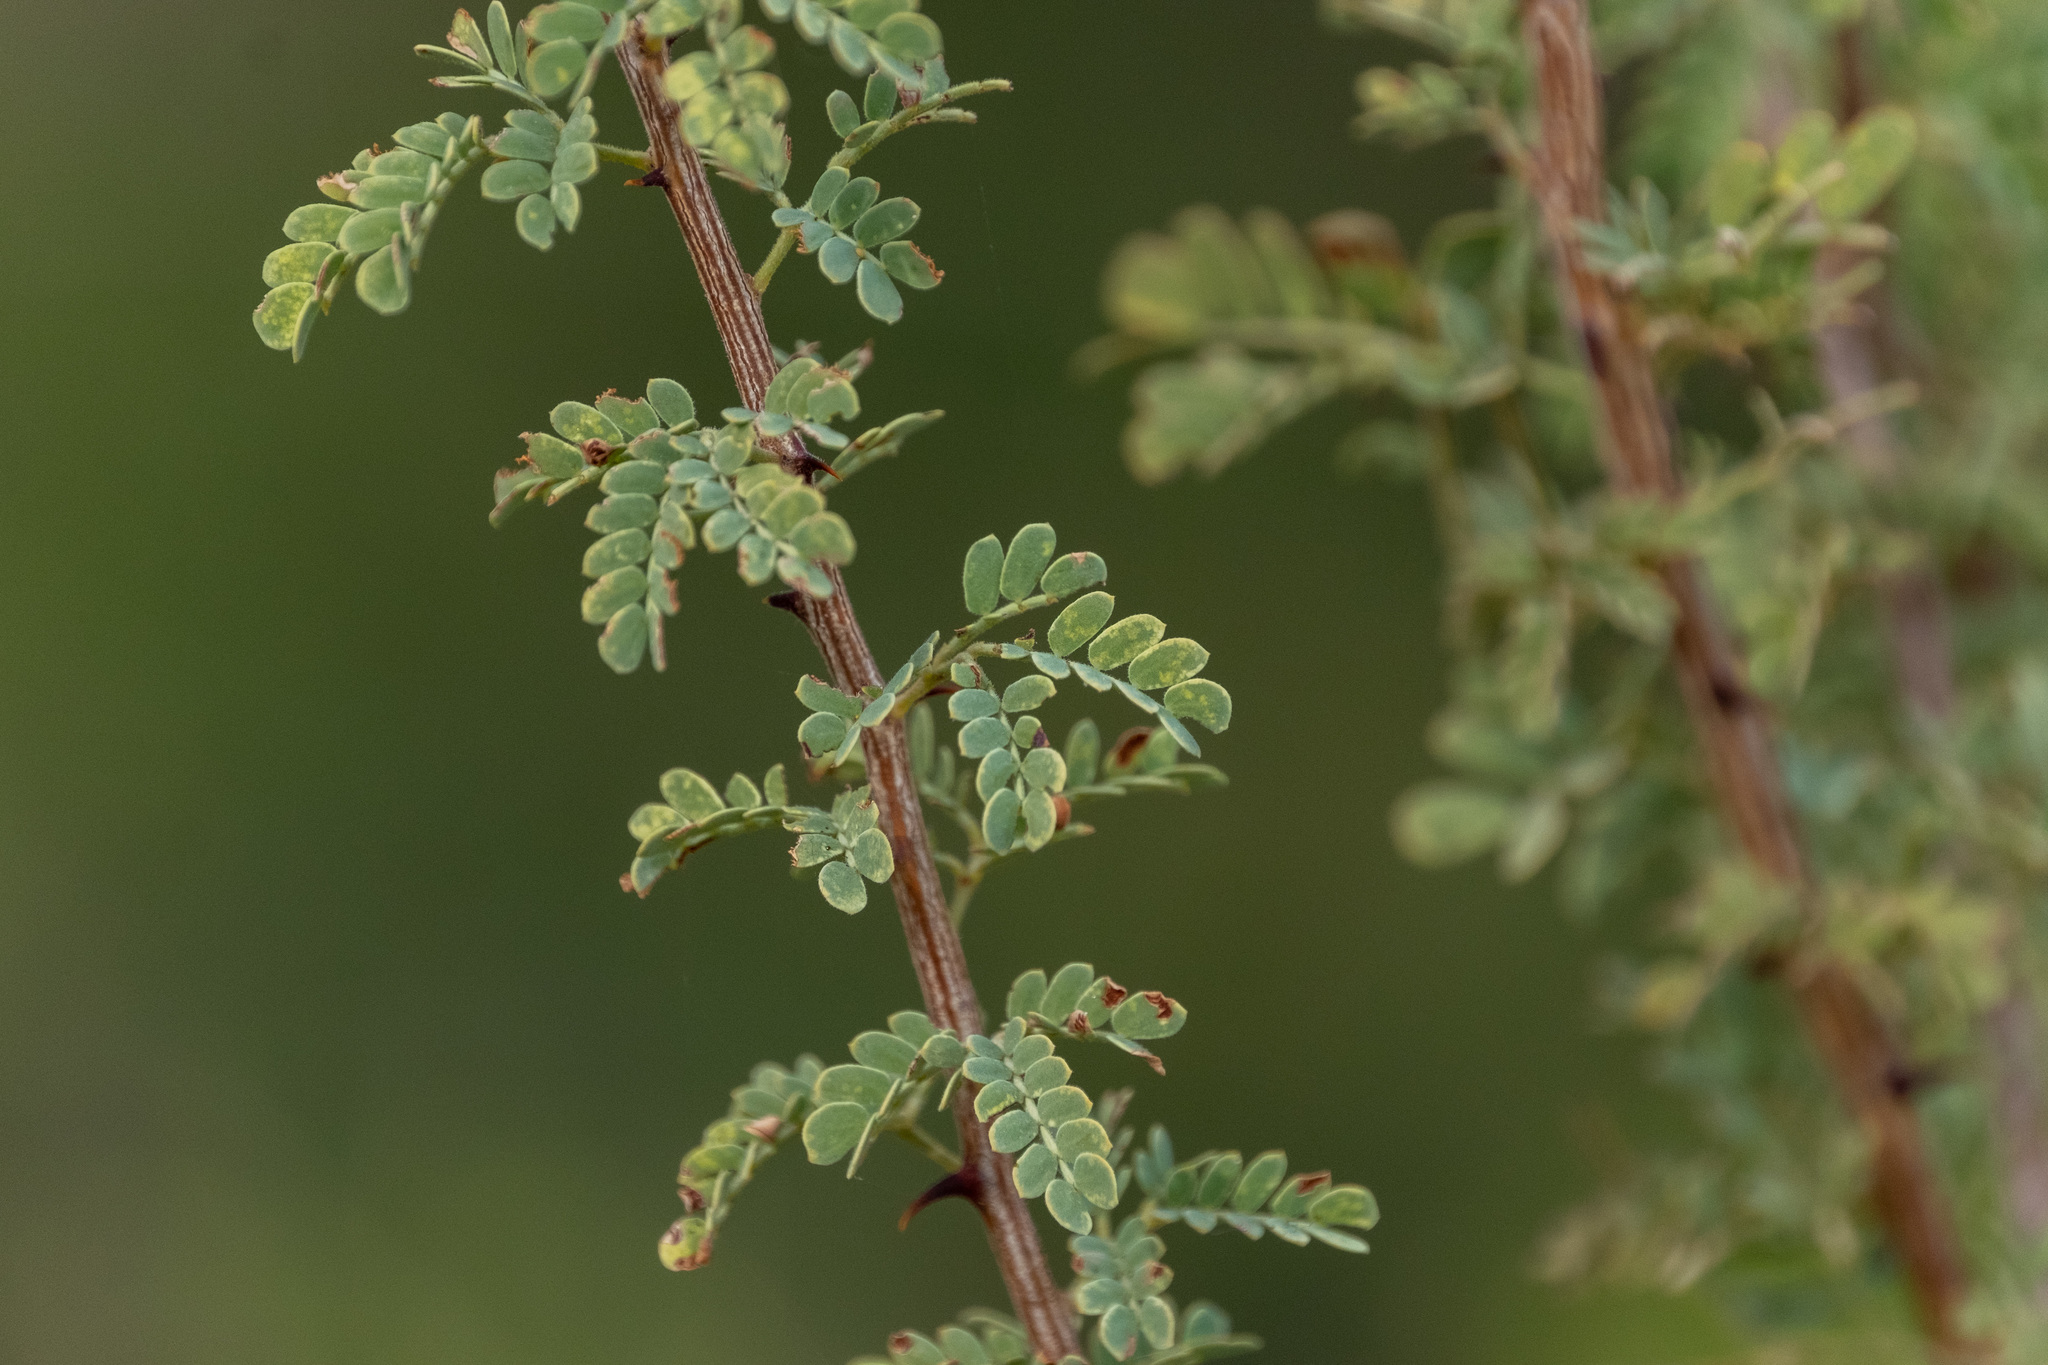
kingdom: Plantae
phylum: Tracheophyta
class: Magnoliopsida
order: Fabales
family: Fabaceae
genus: Senegalia
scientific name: Senegalia greggii
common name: Texas-mimosa
